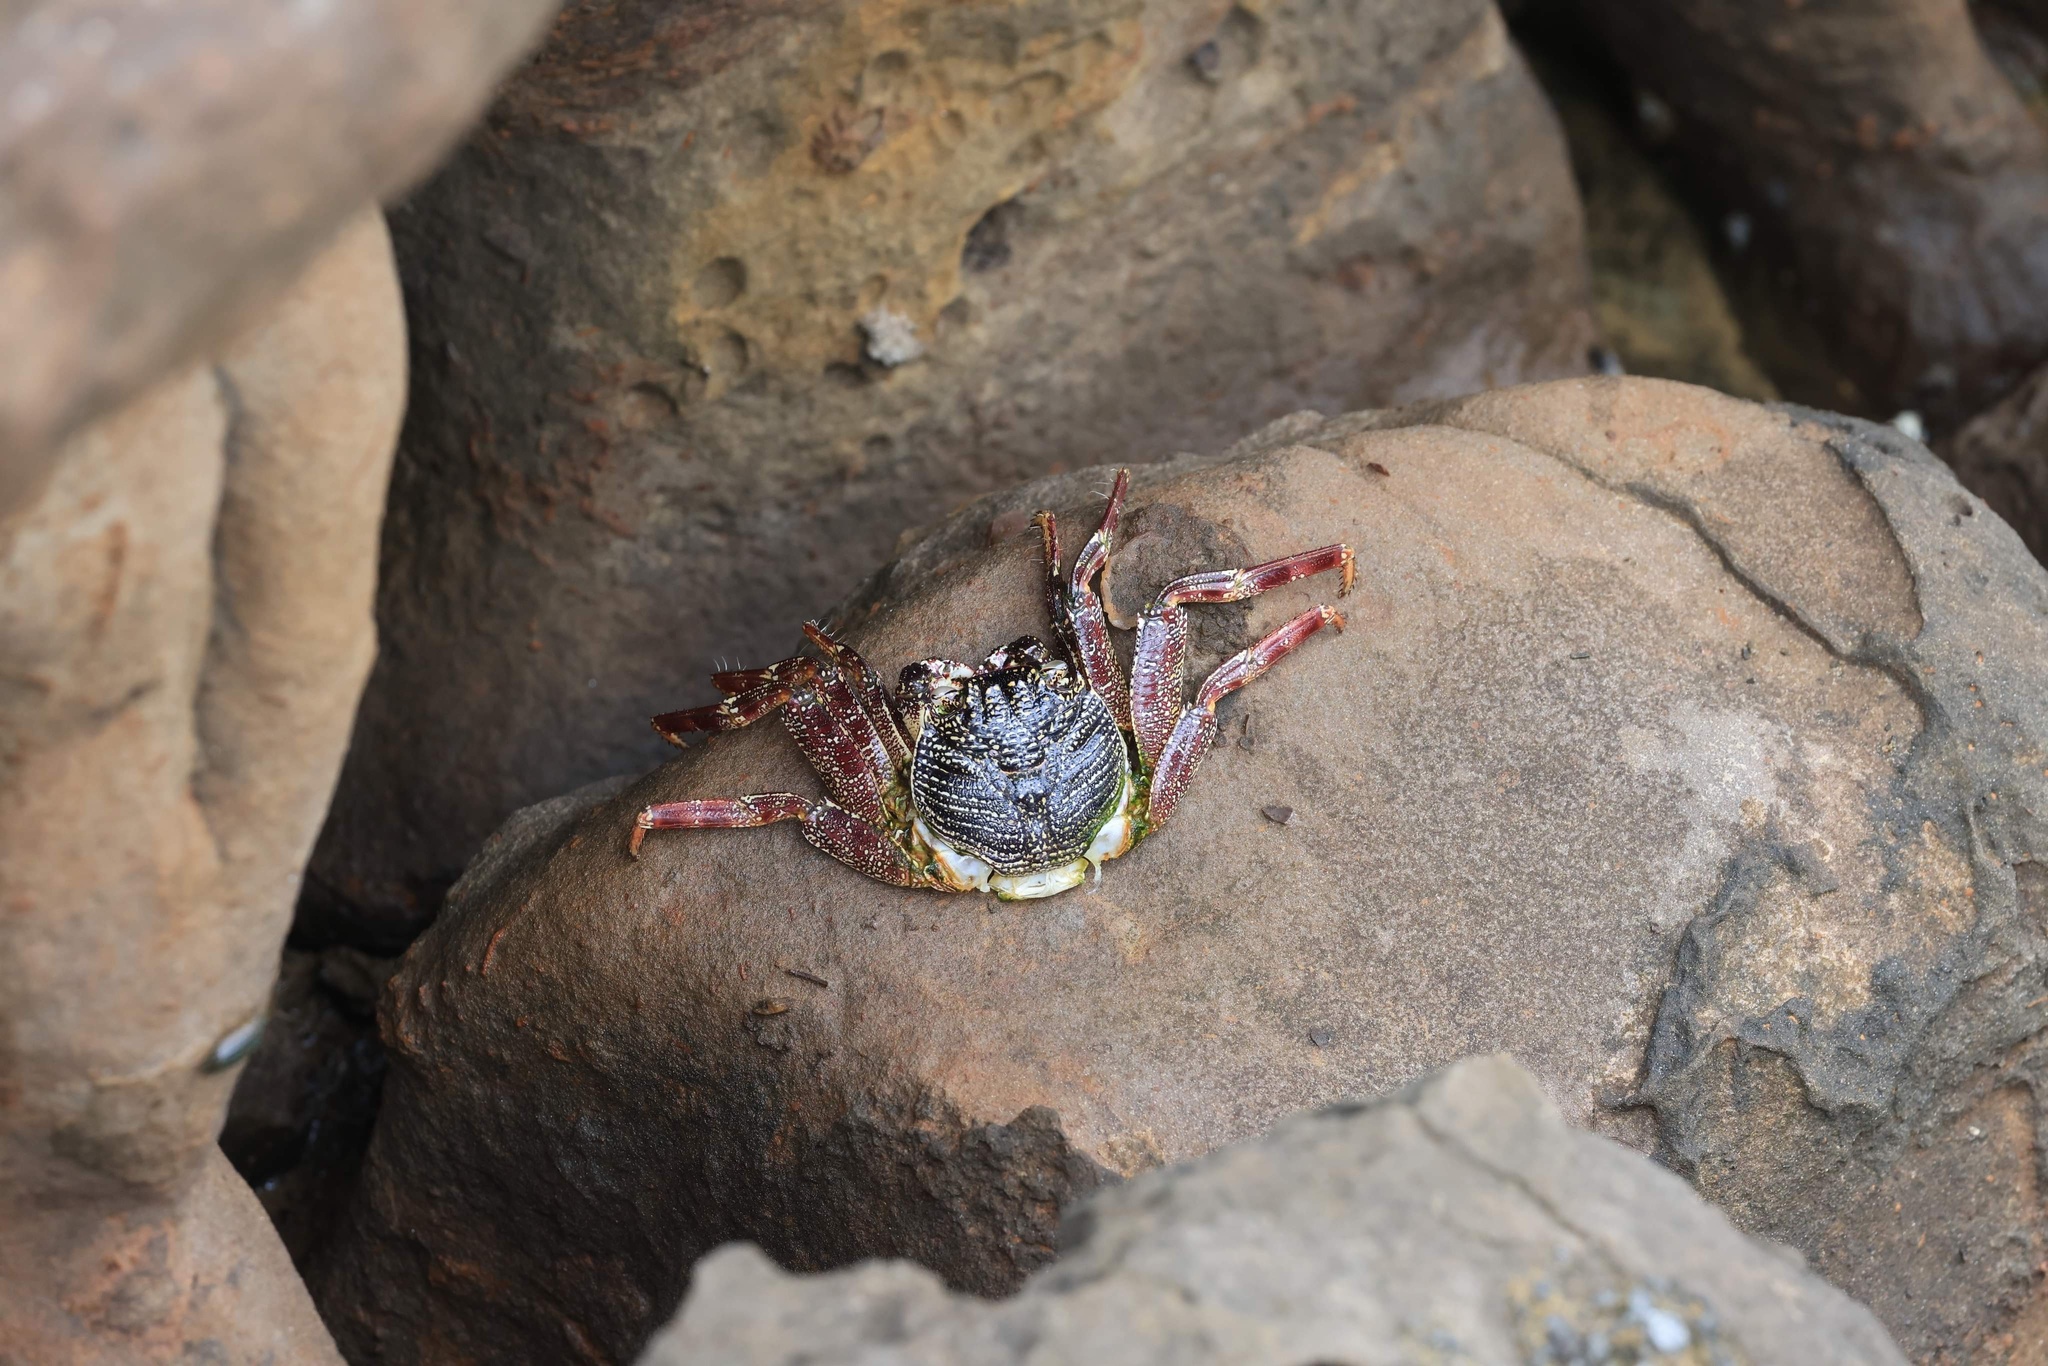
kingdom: Animalia
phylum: Arthropoda
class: Malacostraca
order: Decapoda
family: Grapsidae
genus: Grapsus
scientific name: Grapsus tenuicrustatus
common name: Natal lightfoot crab
